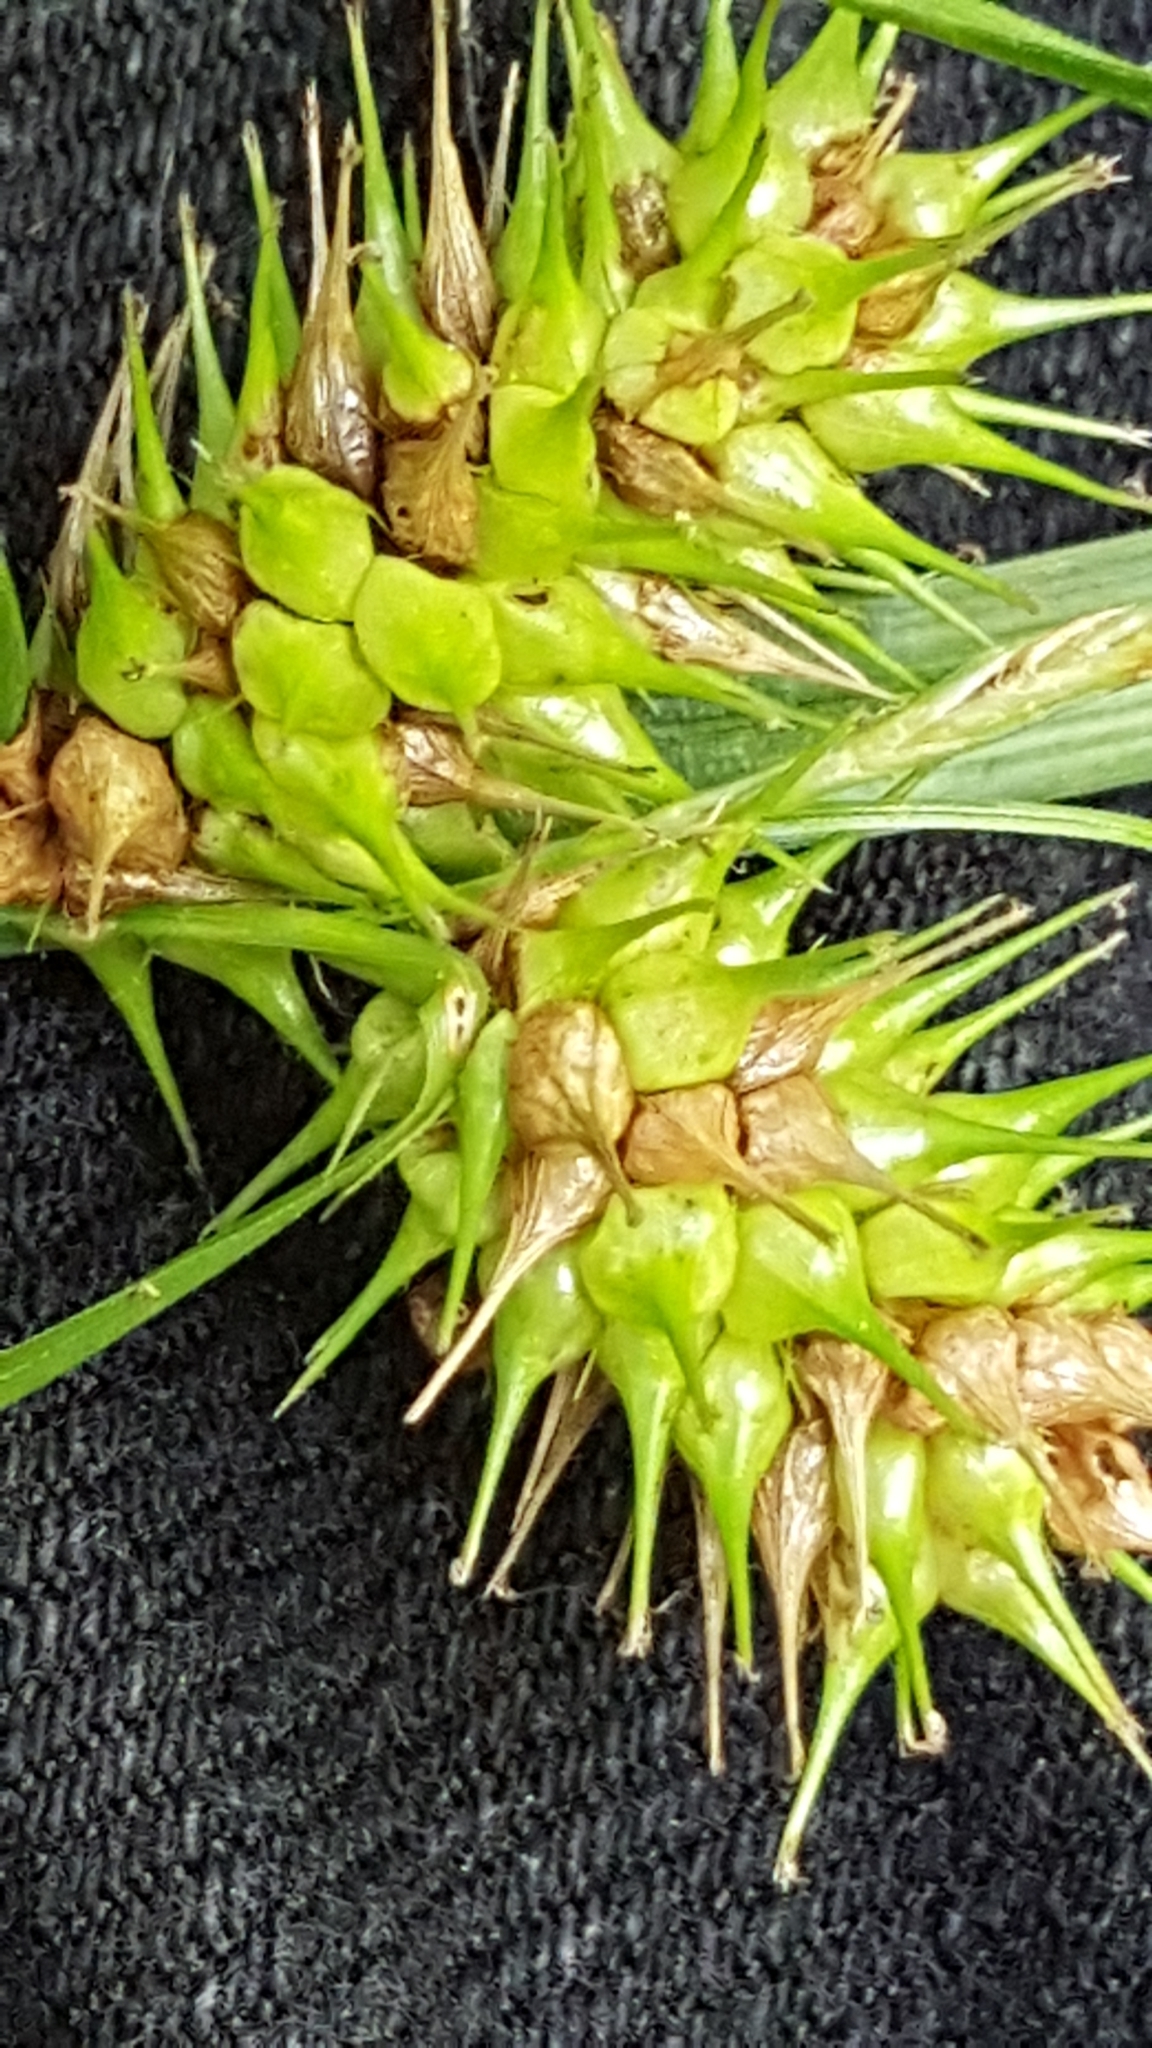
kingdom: Plantae
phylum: Tracheophyta
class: Liliopsida
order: Poales
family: Cyperaceae
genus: Carex
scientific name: Carex lurida
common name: Sallow sedge
